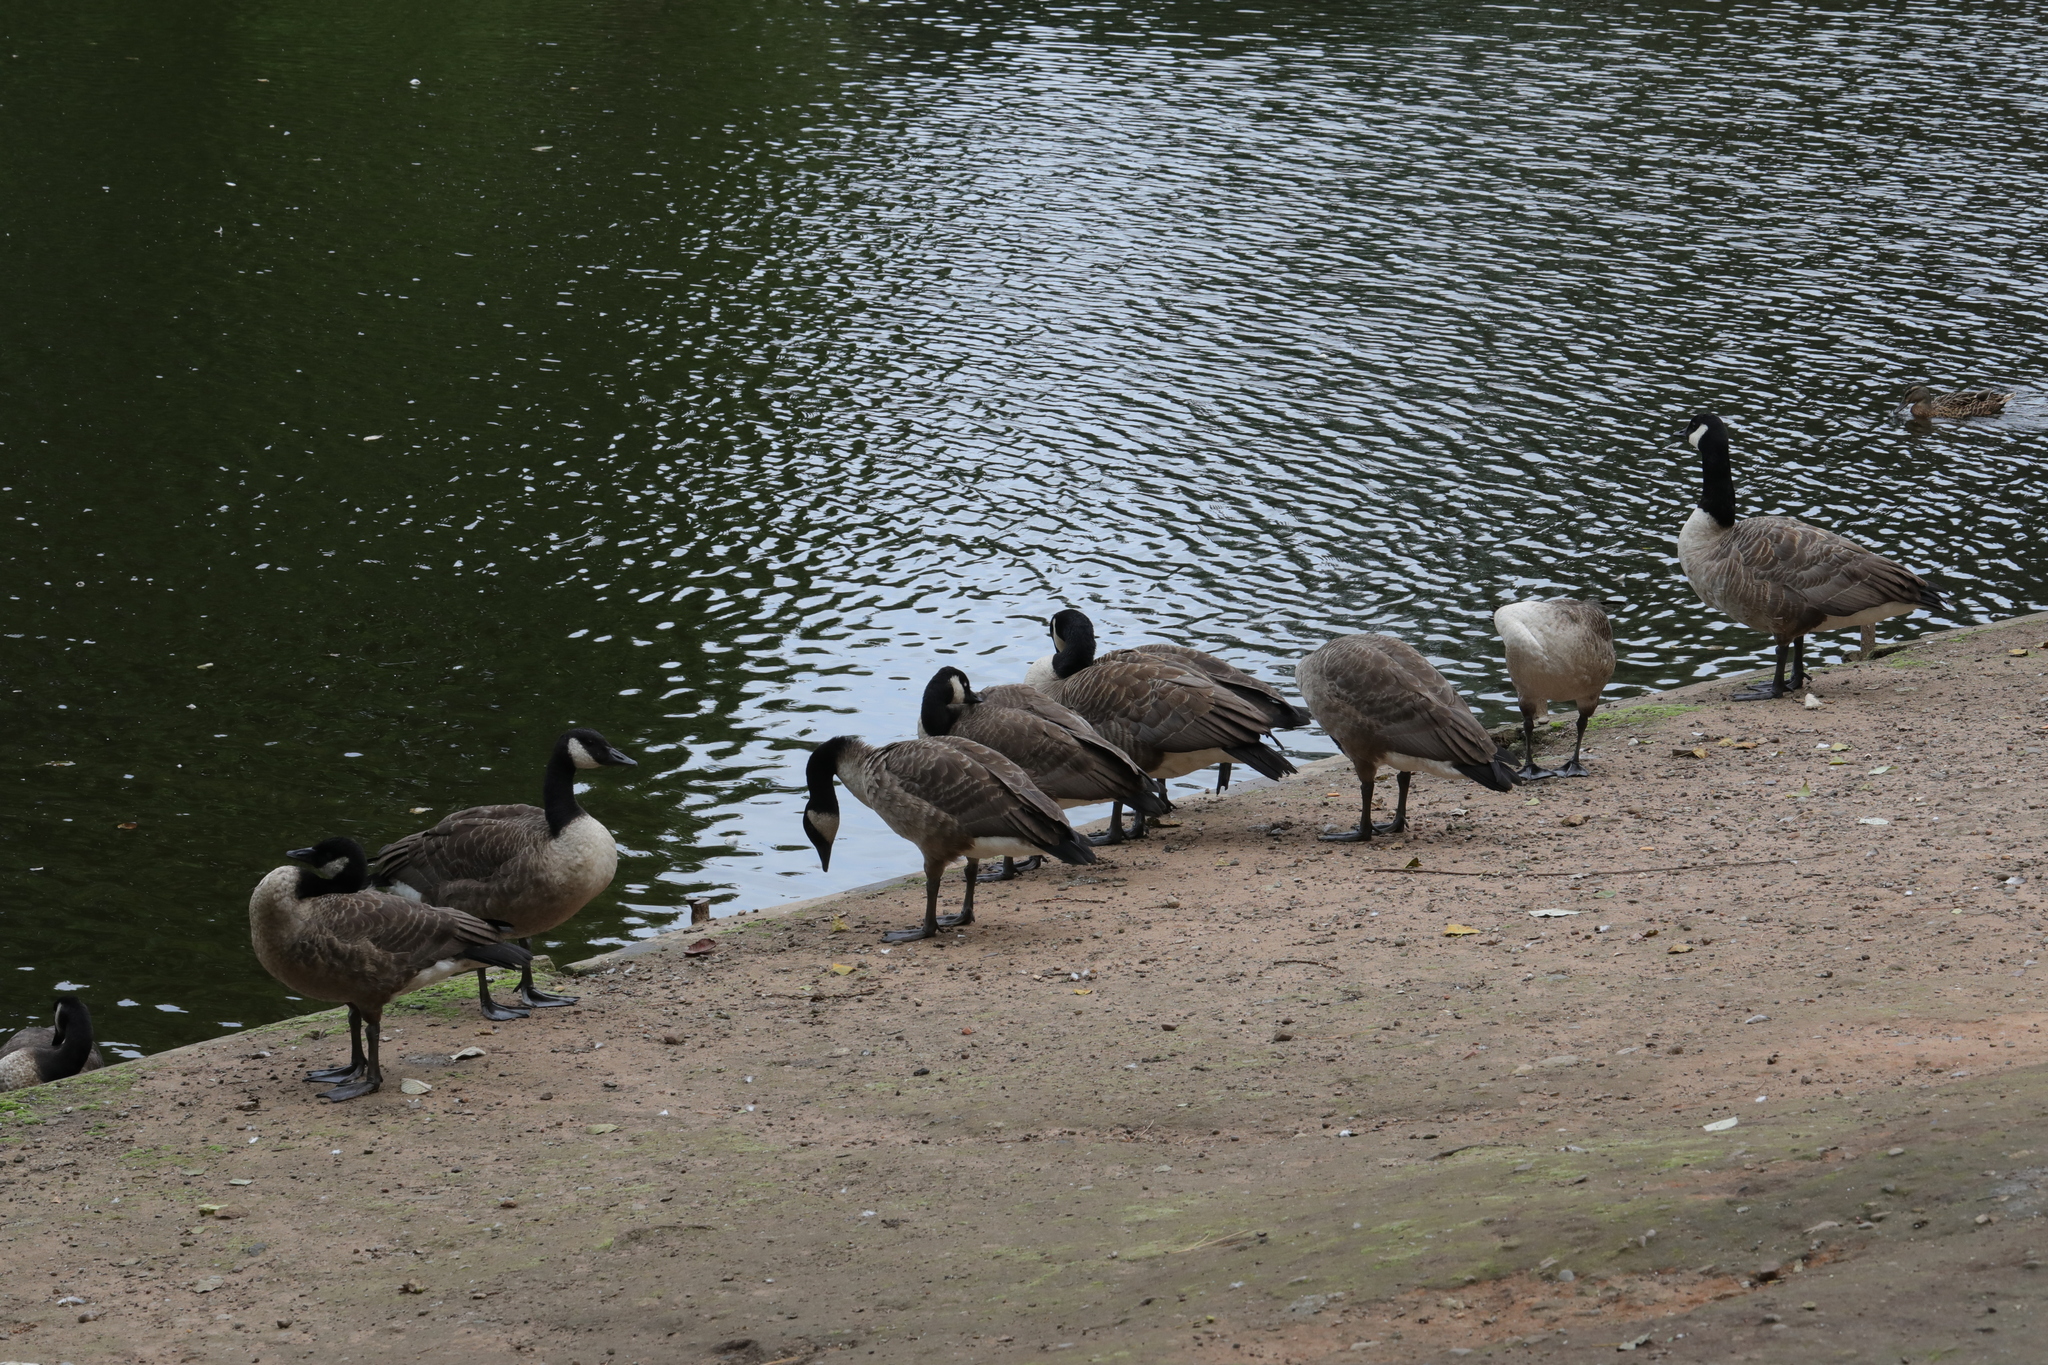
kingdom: Animalia
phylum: Chordata
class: Aves
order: Anseriformes
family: Anatidae
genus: Branta
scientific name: Branta canadensis
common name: Canada goose
